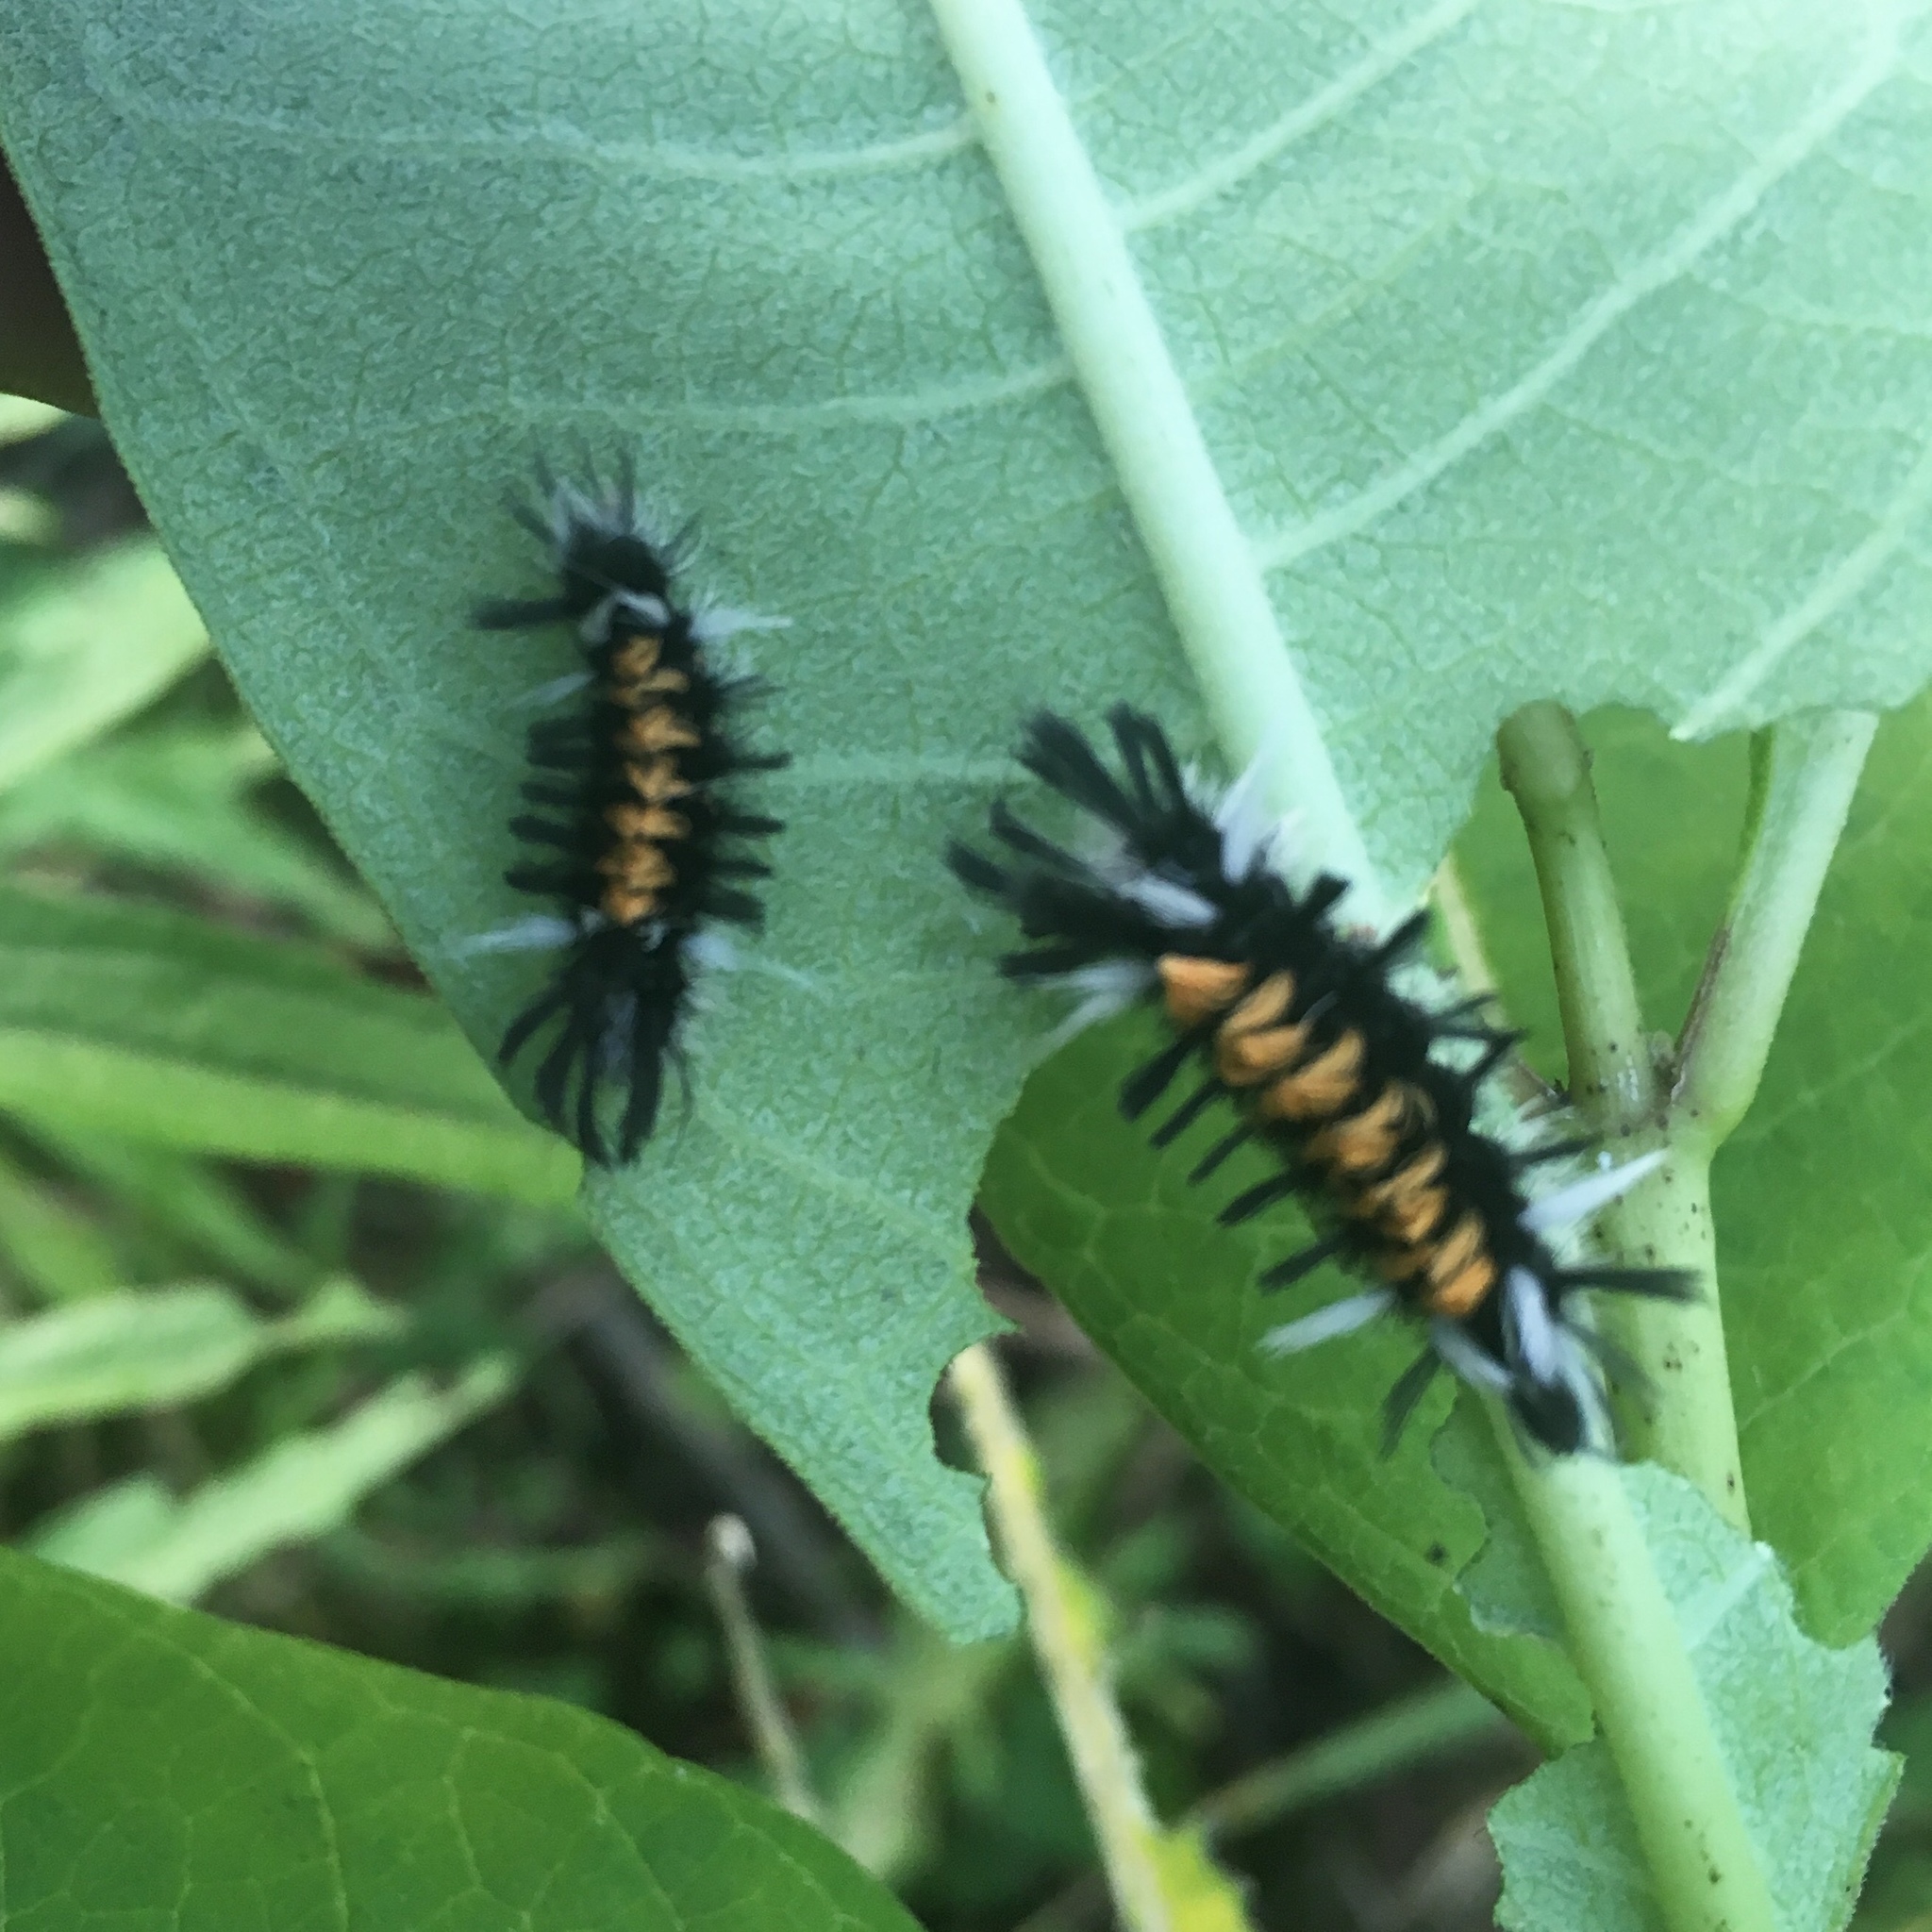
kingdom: Animalia
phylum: Arthropoda
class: Insecta
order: Lepidoptera
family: Erebidae
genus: Euchaetes
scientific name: Euchaetes egle
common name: Milkweed tussock moth
